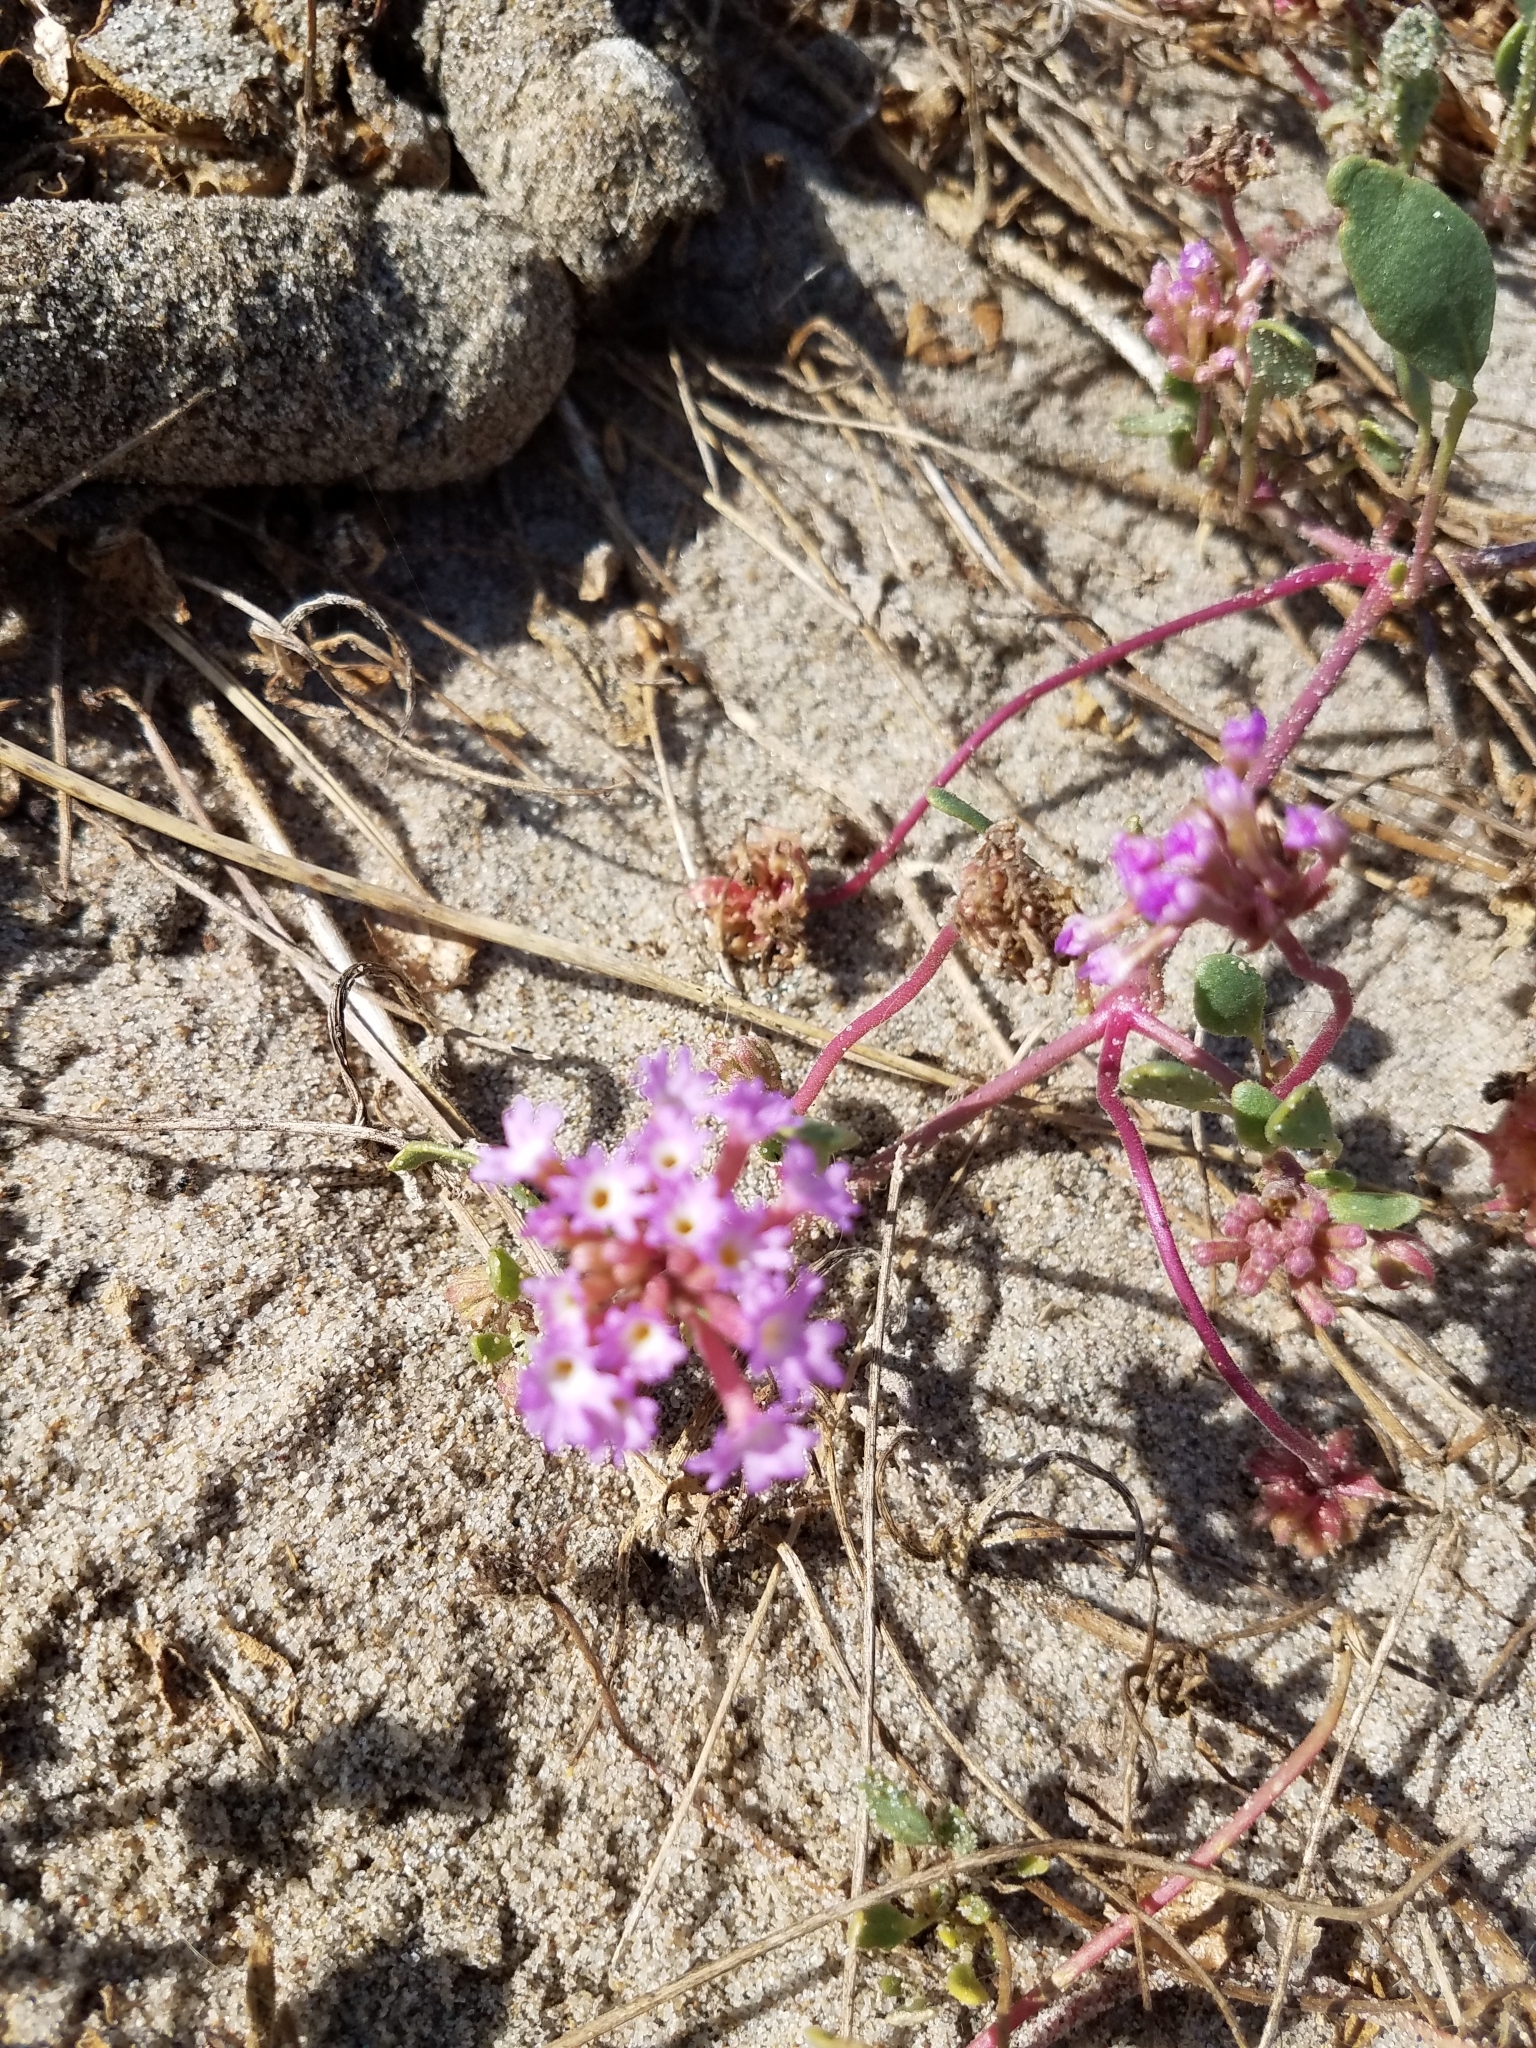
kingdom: Plantae
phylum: Tracheophyta
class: Magnoliopsida
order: Caryophyllales
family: Nyctaginaceae
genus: Abronia
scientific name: Abronia umbellata
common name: Sand-verbena
